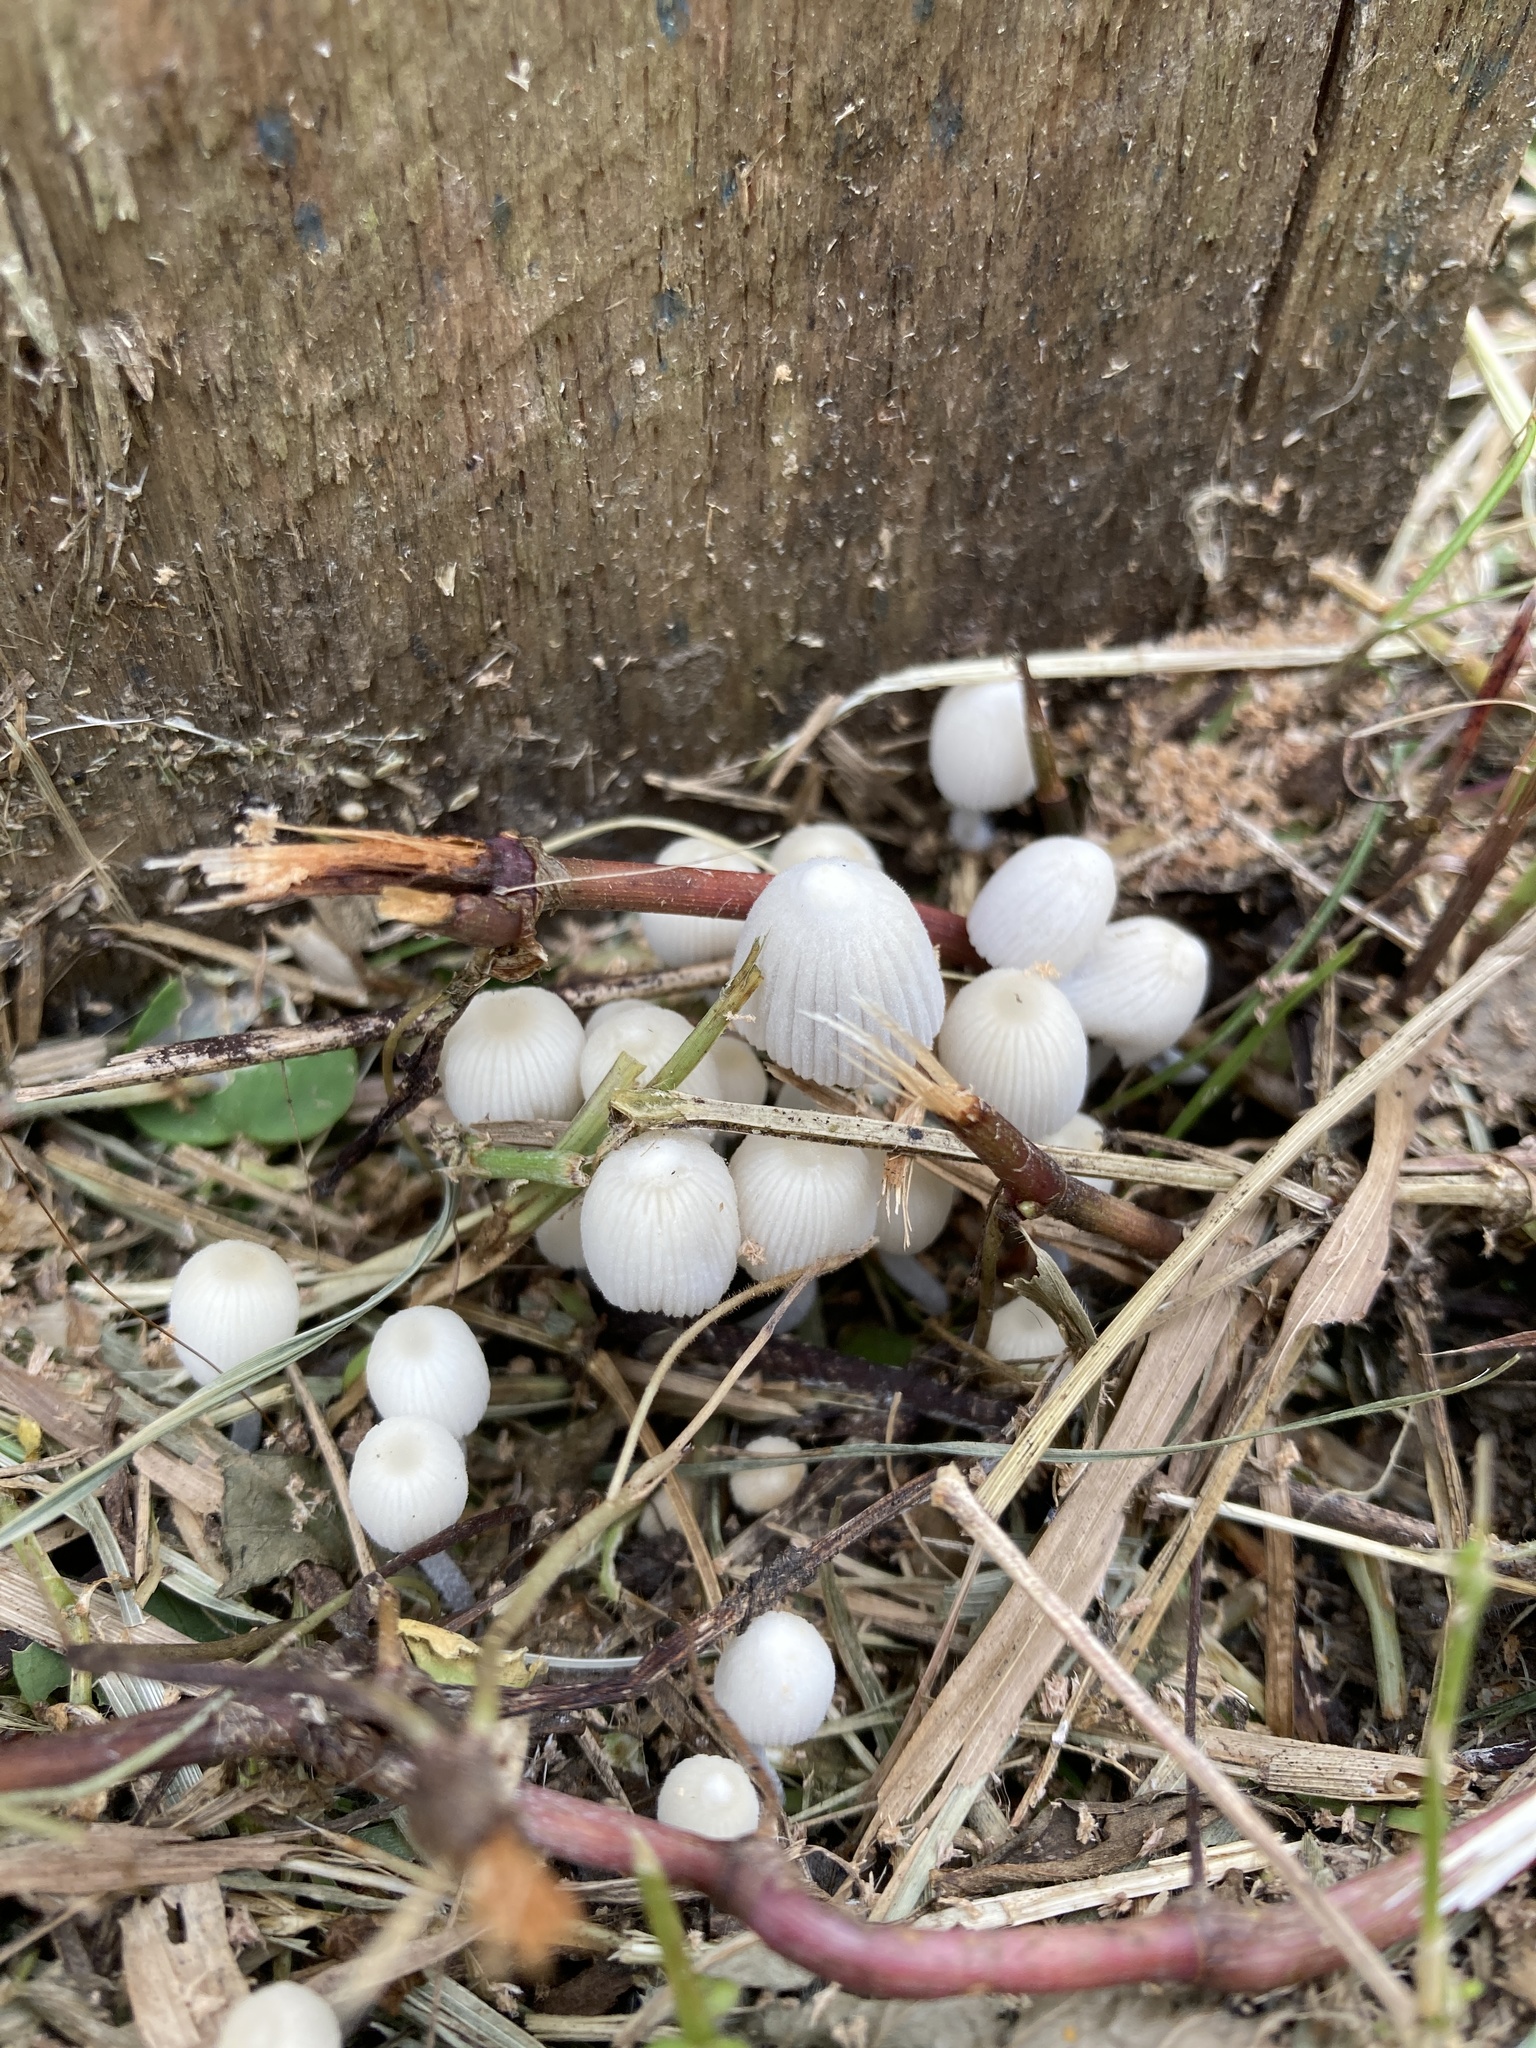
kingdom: Fungi
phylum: Basidiomycota
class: Agaricomycetes
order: Agaricales
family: Psathyrellaceae
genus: Coprinellus
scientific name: Coprinellus disseminatus
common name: Fairies' bonnets
